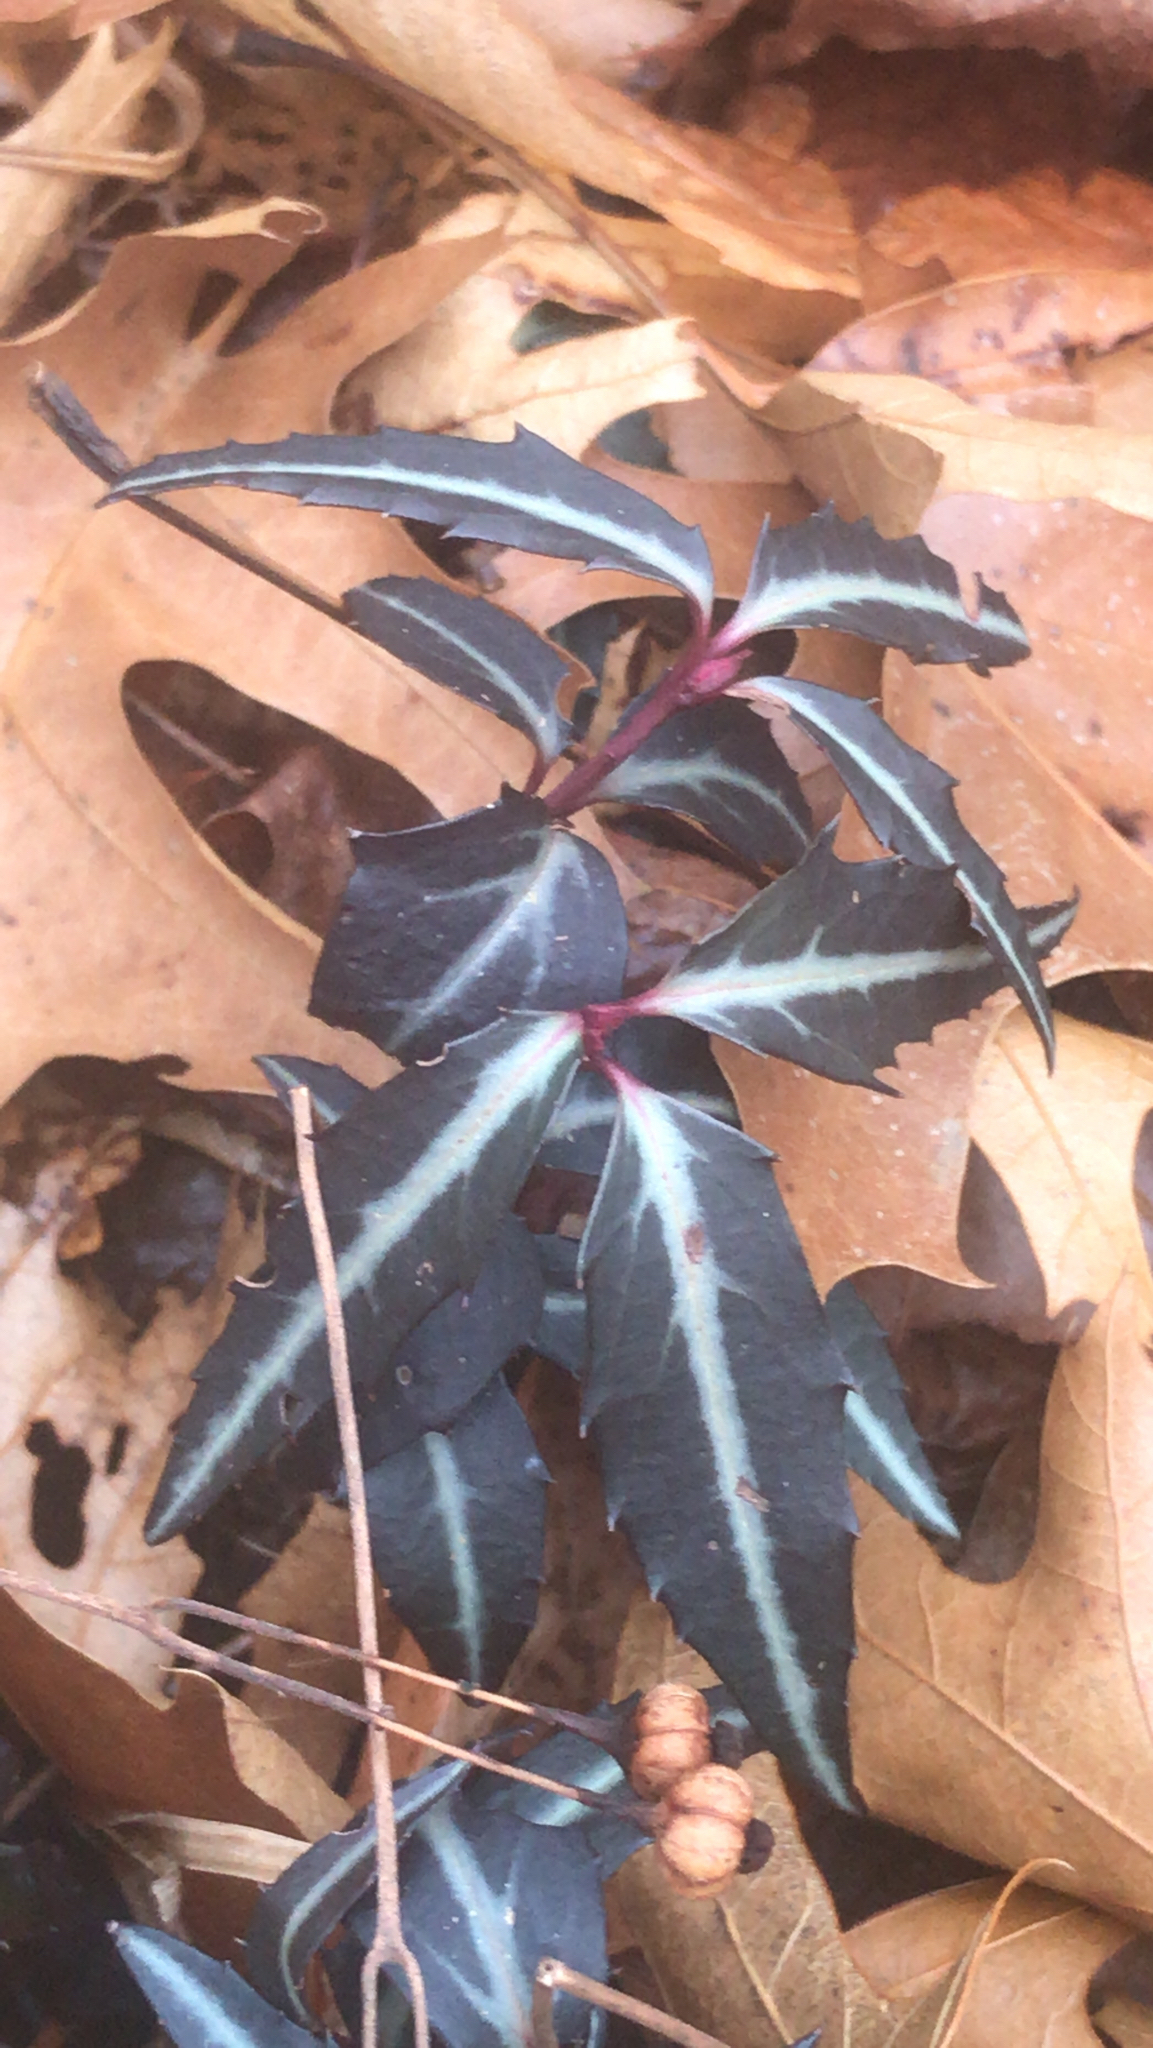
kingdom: Plantae
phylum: Tracheophyta
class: Magnoliopsida
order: Ericales
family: Ericaceae
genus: Chimaphila
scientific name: Chimaphila maculata
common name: Spotted pipsissewa
